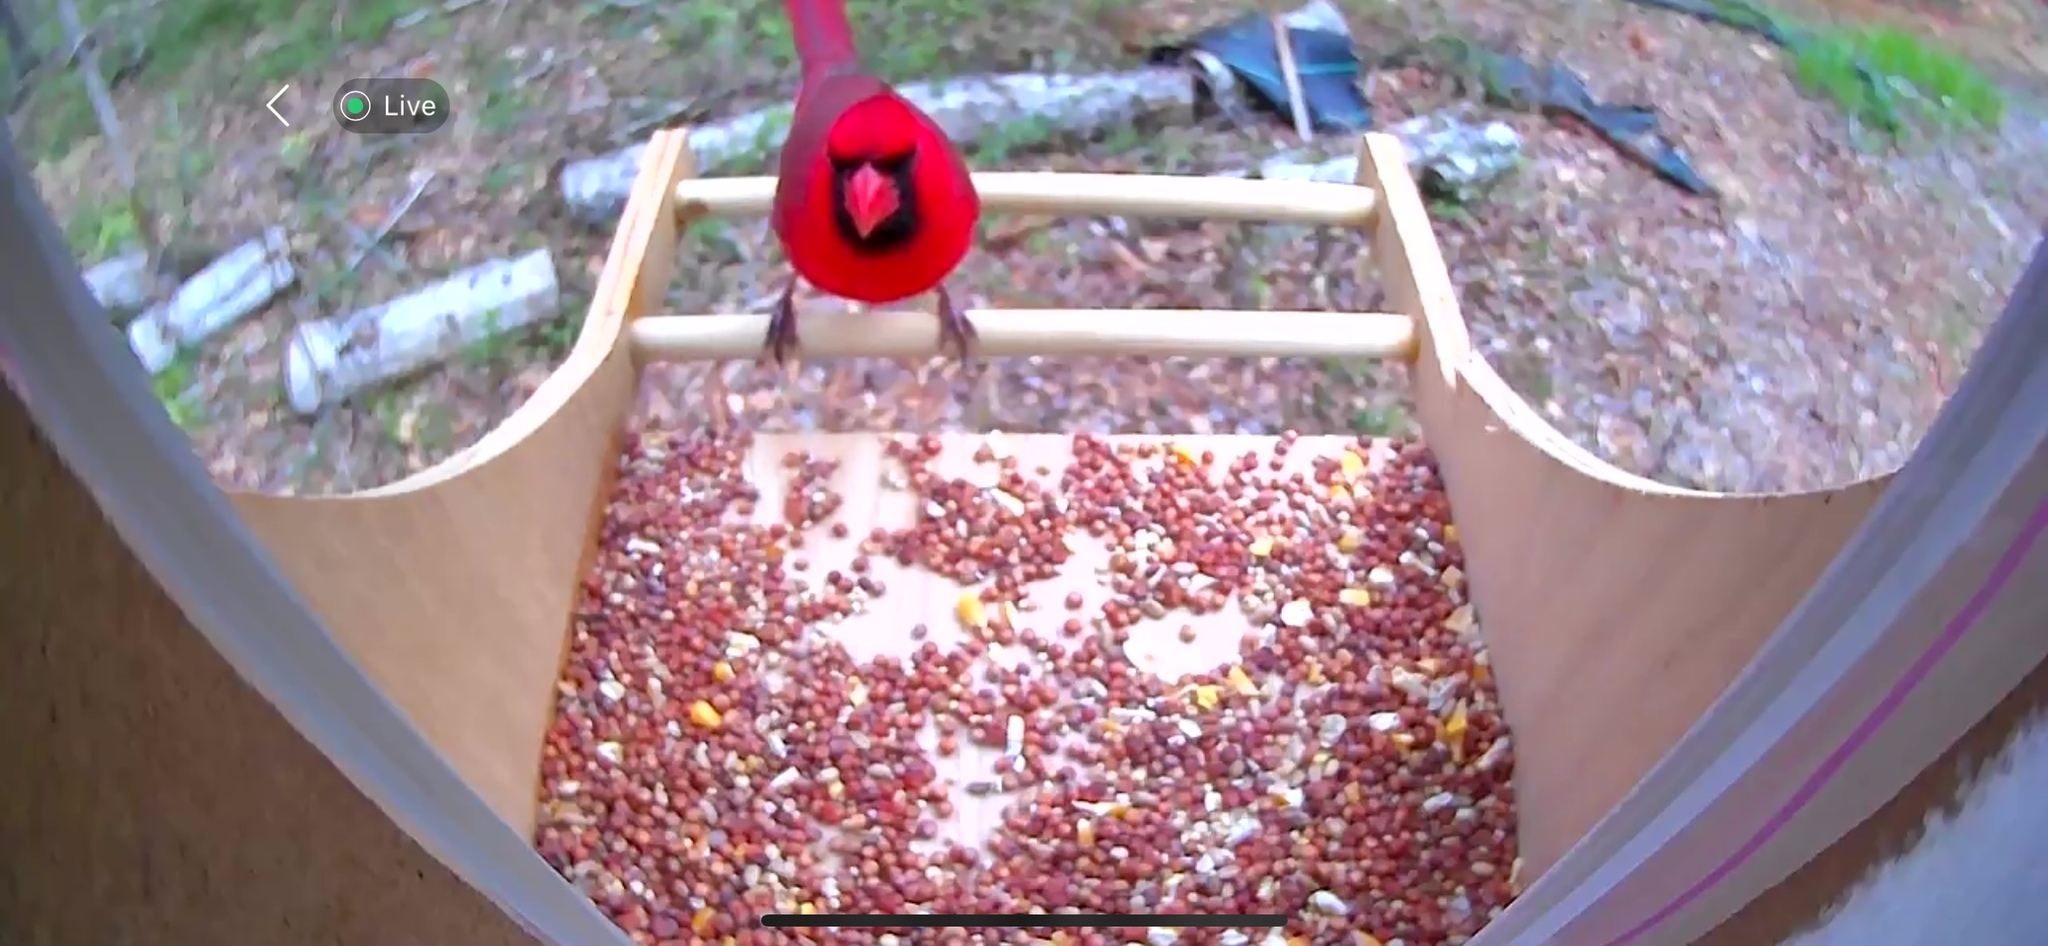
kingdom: Animalia
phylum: Chordata
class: Aves
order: Passeriformes
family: Cardinalidae
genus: Cardinalis
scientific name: Cardinalis cardinalis
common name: Northern cardinal
